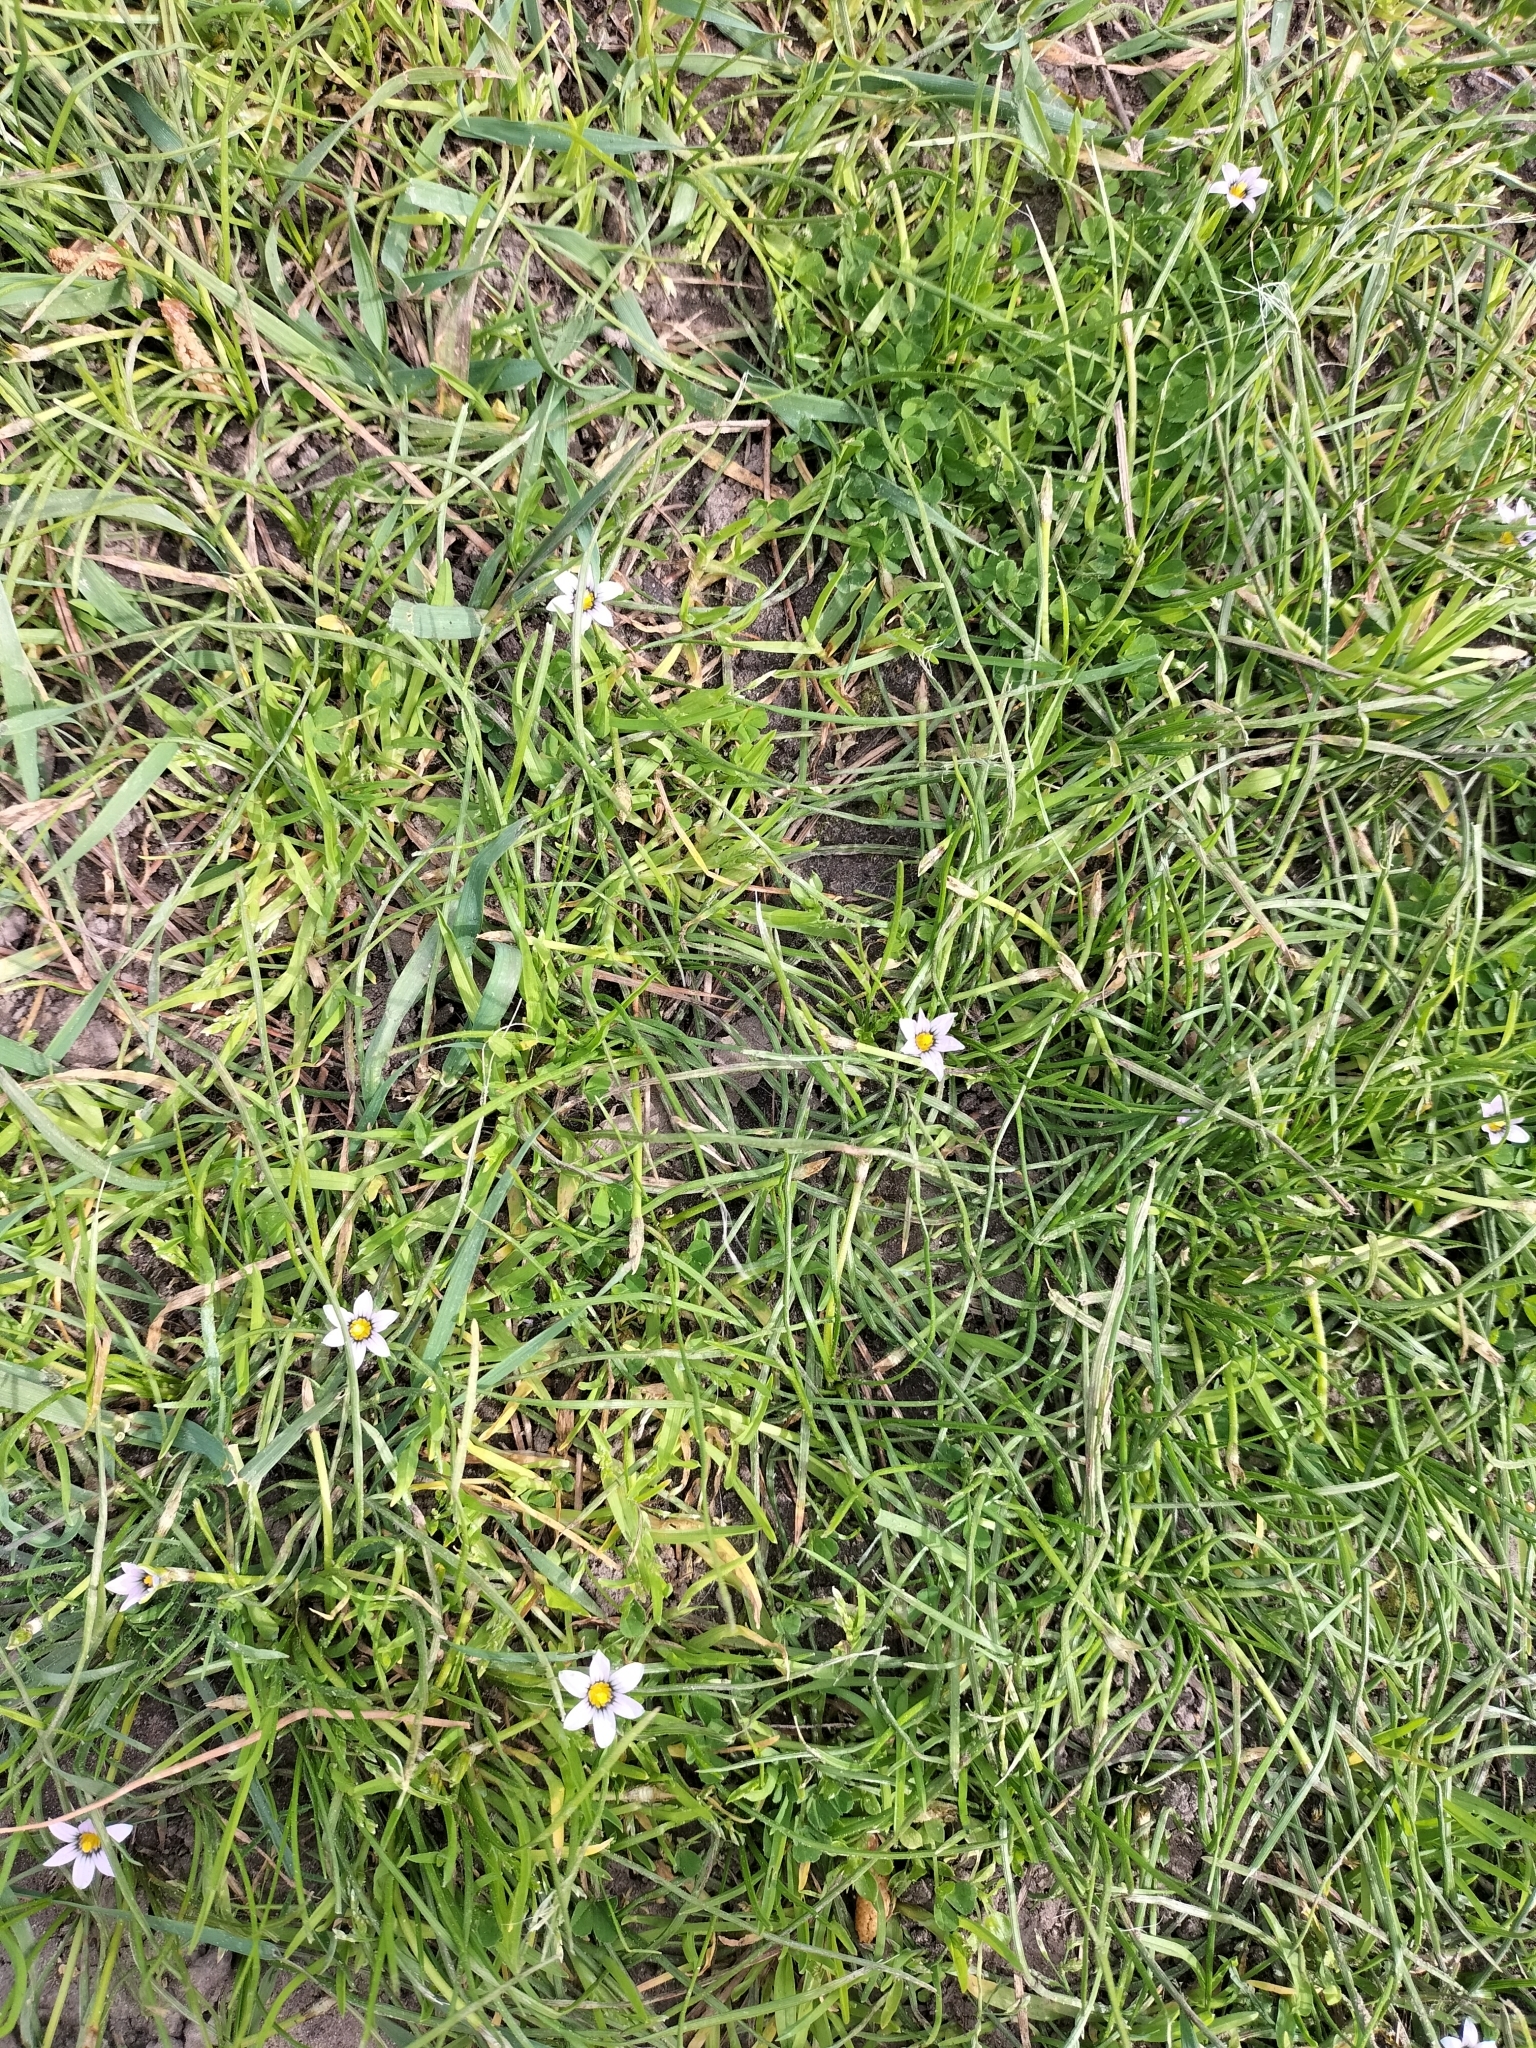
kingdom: Plantae
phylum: Tracheophyta
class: Liliopsida
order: Asparagales
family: Iridaceae
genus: Romulea
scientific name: Romulea minutiflora
